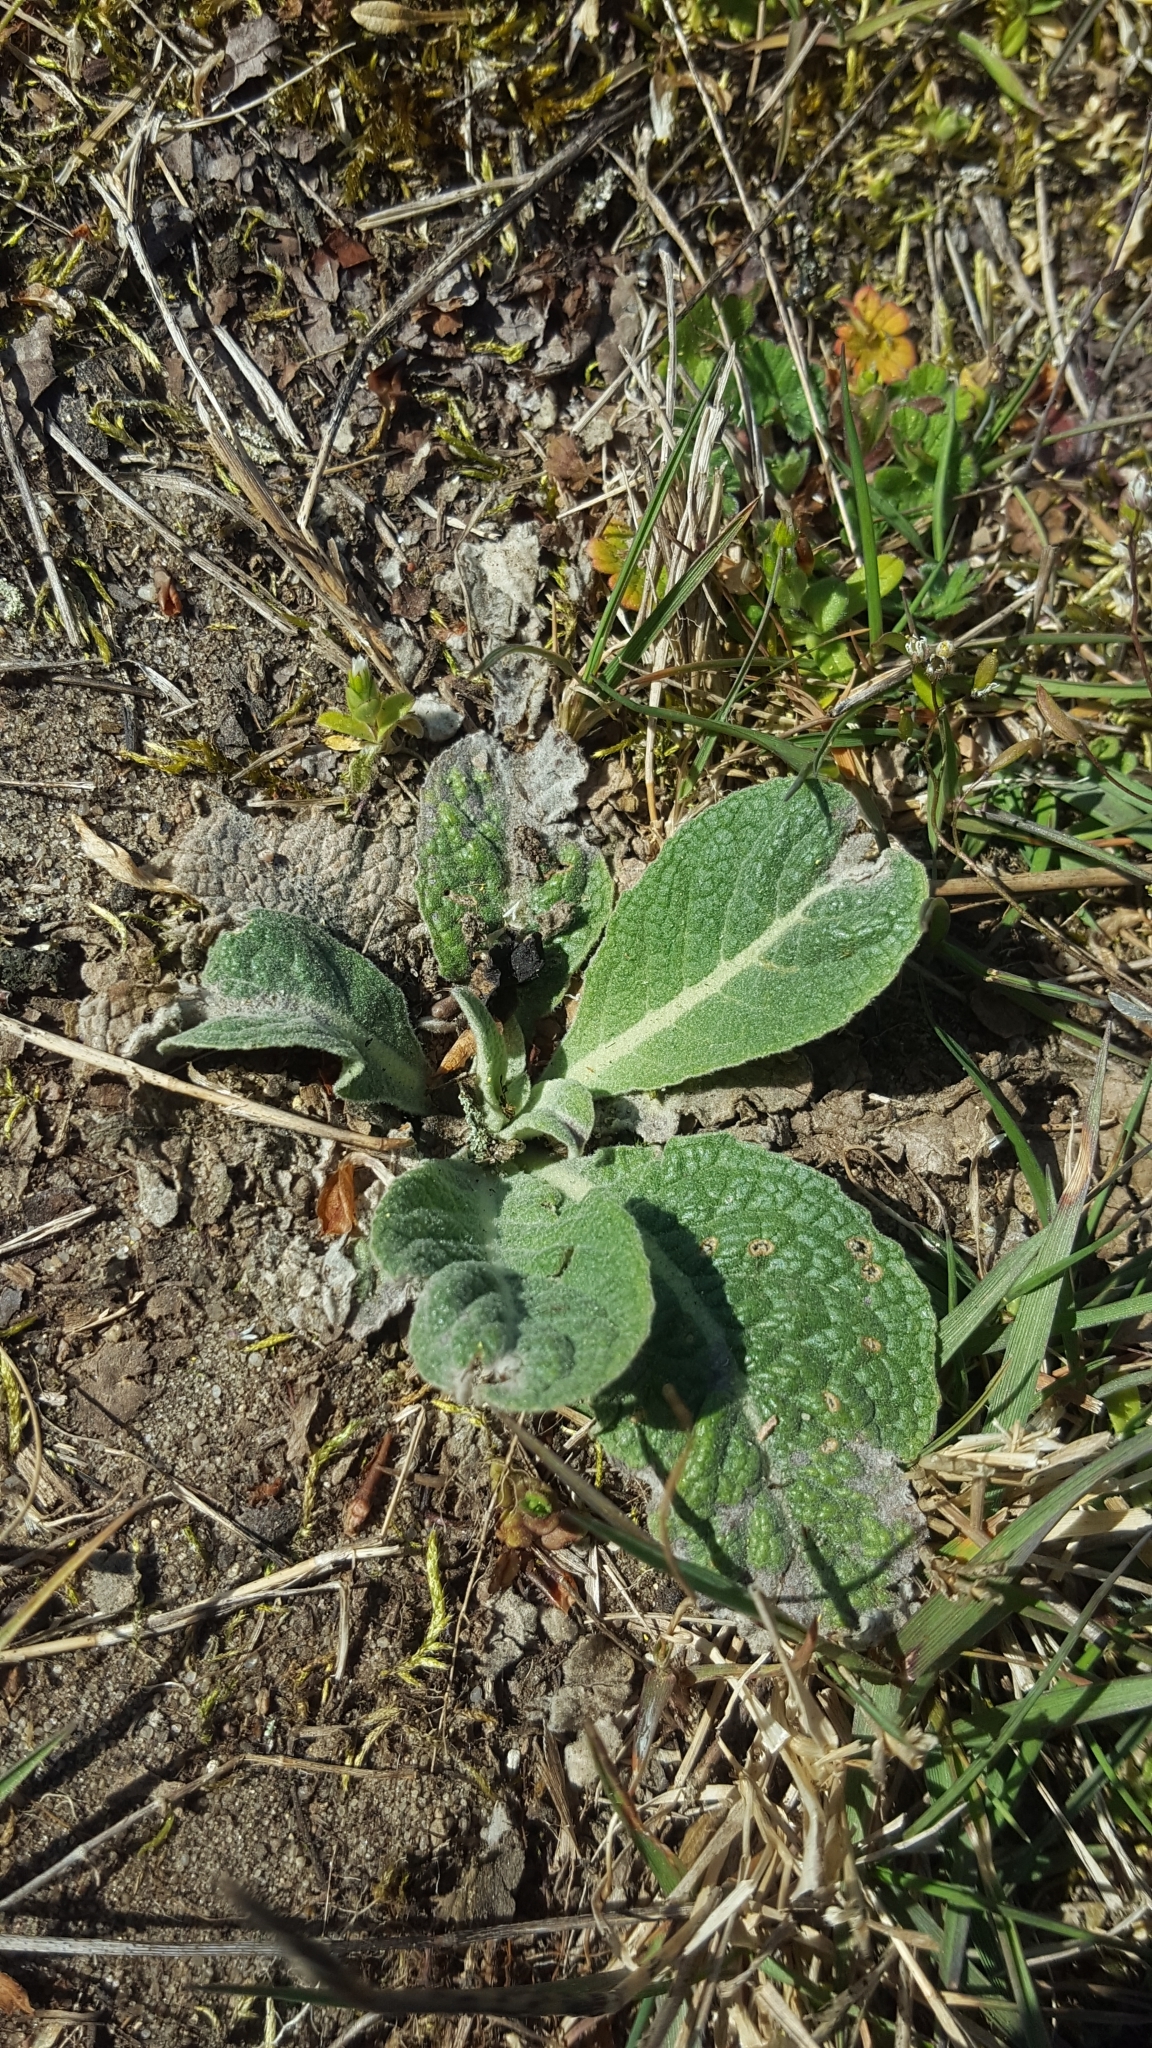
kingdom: Plantae
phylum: Tracheophyta
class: Magnoliopsida
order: Lamiales
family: Scrophulariaceae
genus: Verbascum
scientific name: Verbascum thapsus
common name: Common mullein
